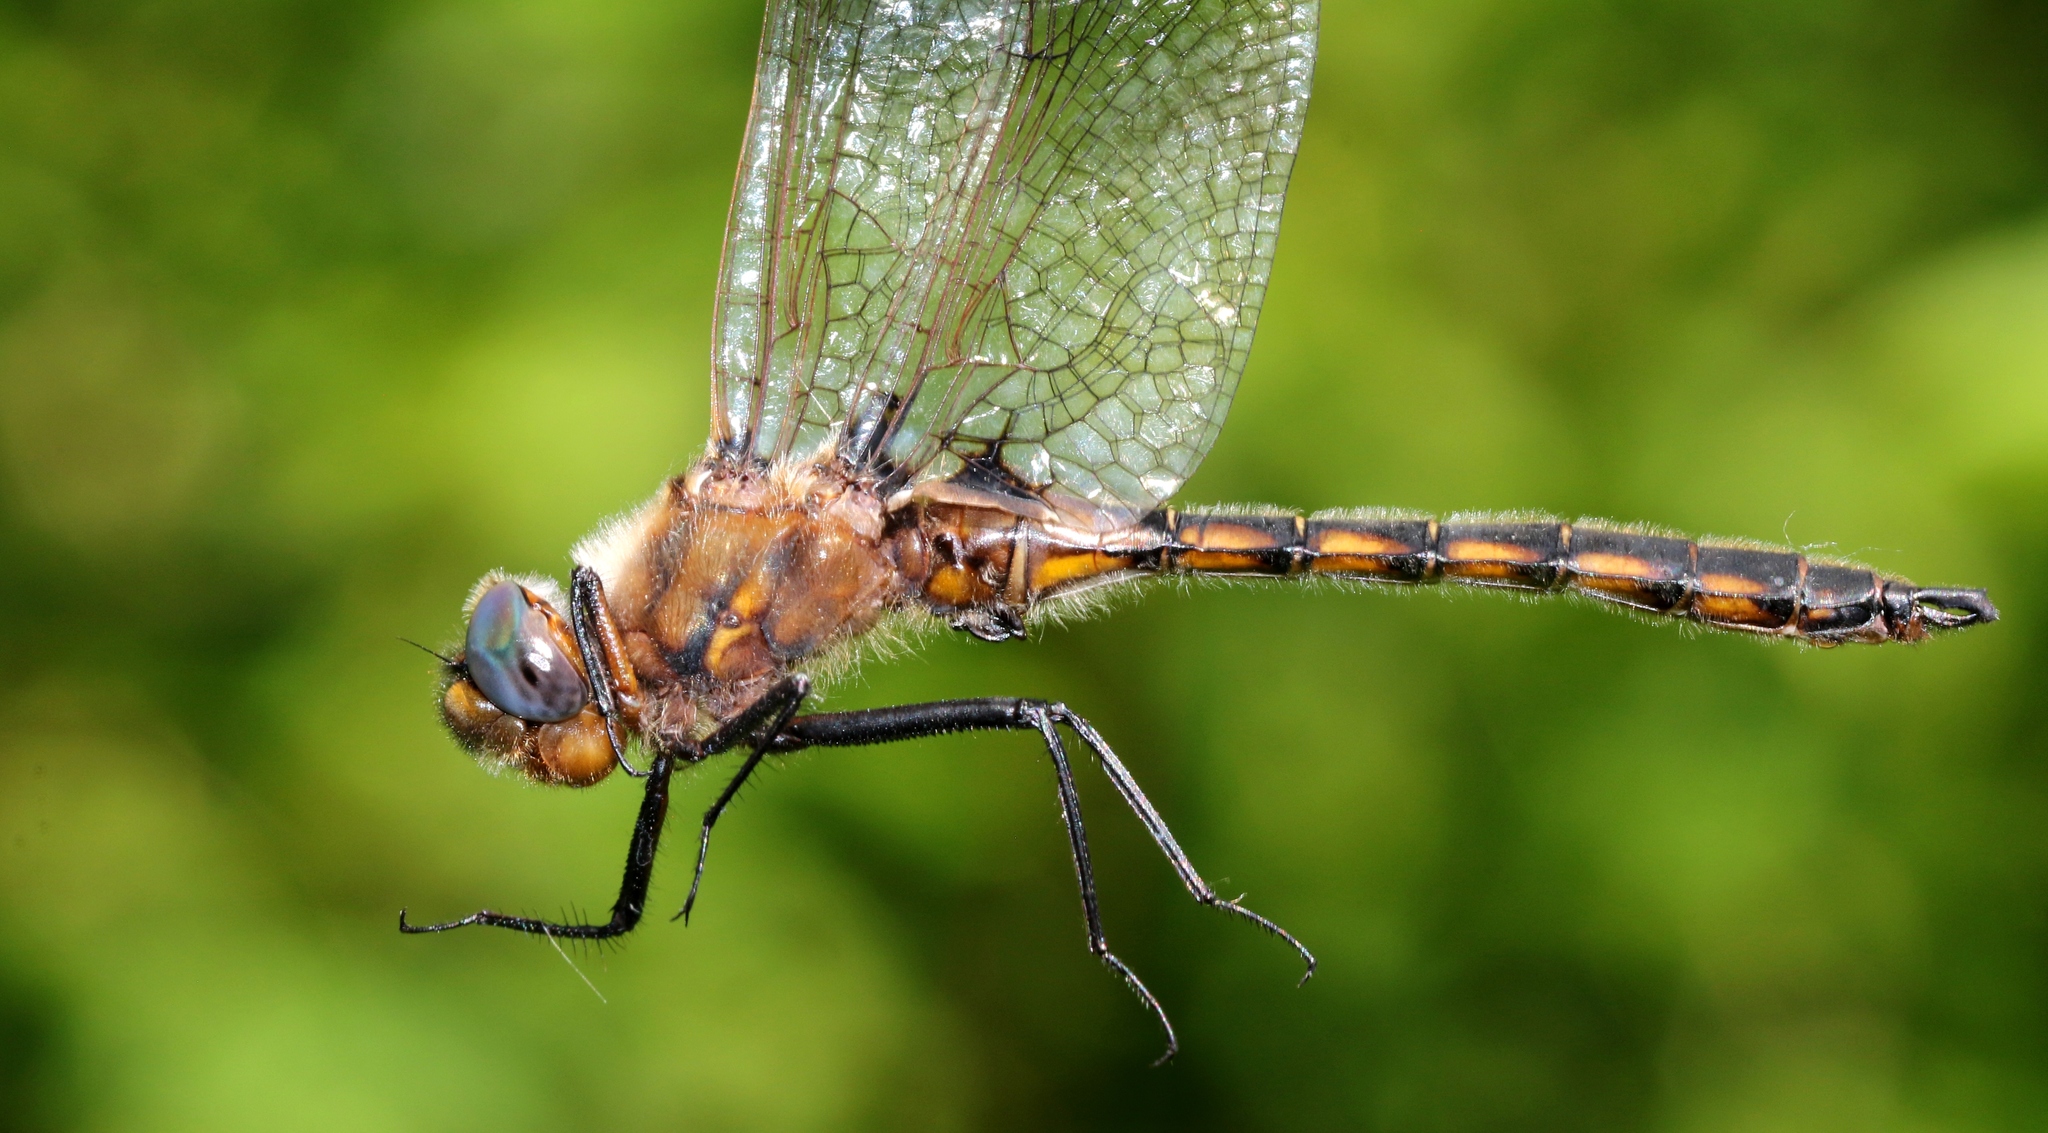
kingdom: Animalia
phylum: Arthropoda
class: Insecta
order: Odonata
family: Corduliidae
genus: Epitheca
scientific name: Epitheca canis
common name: Beaverpond baskettail
